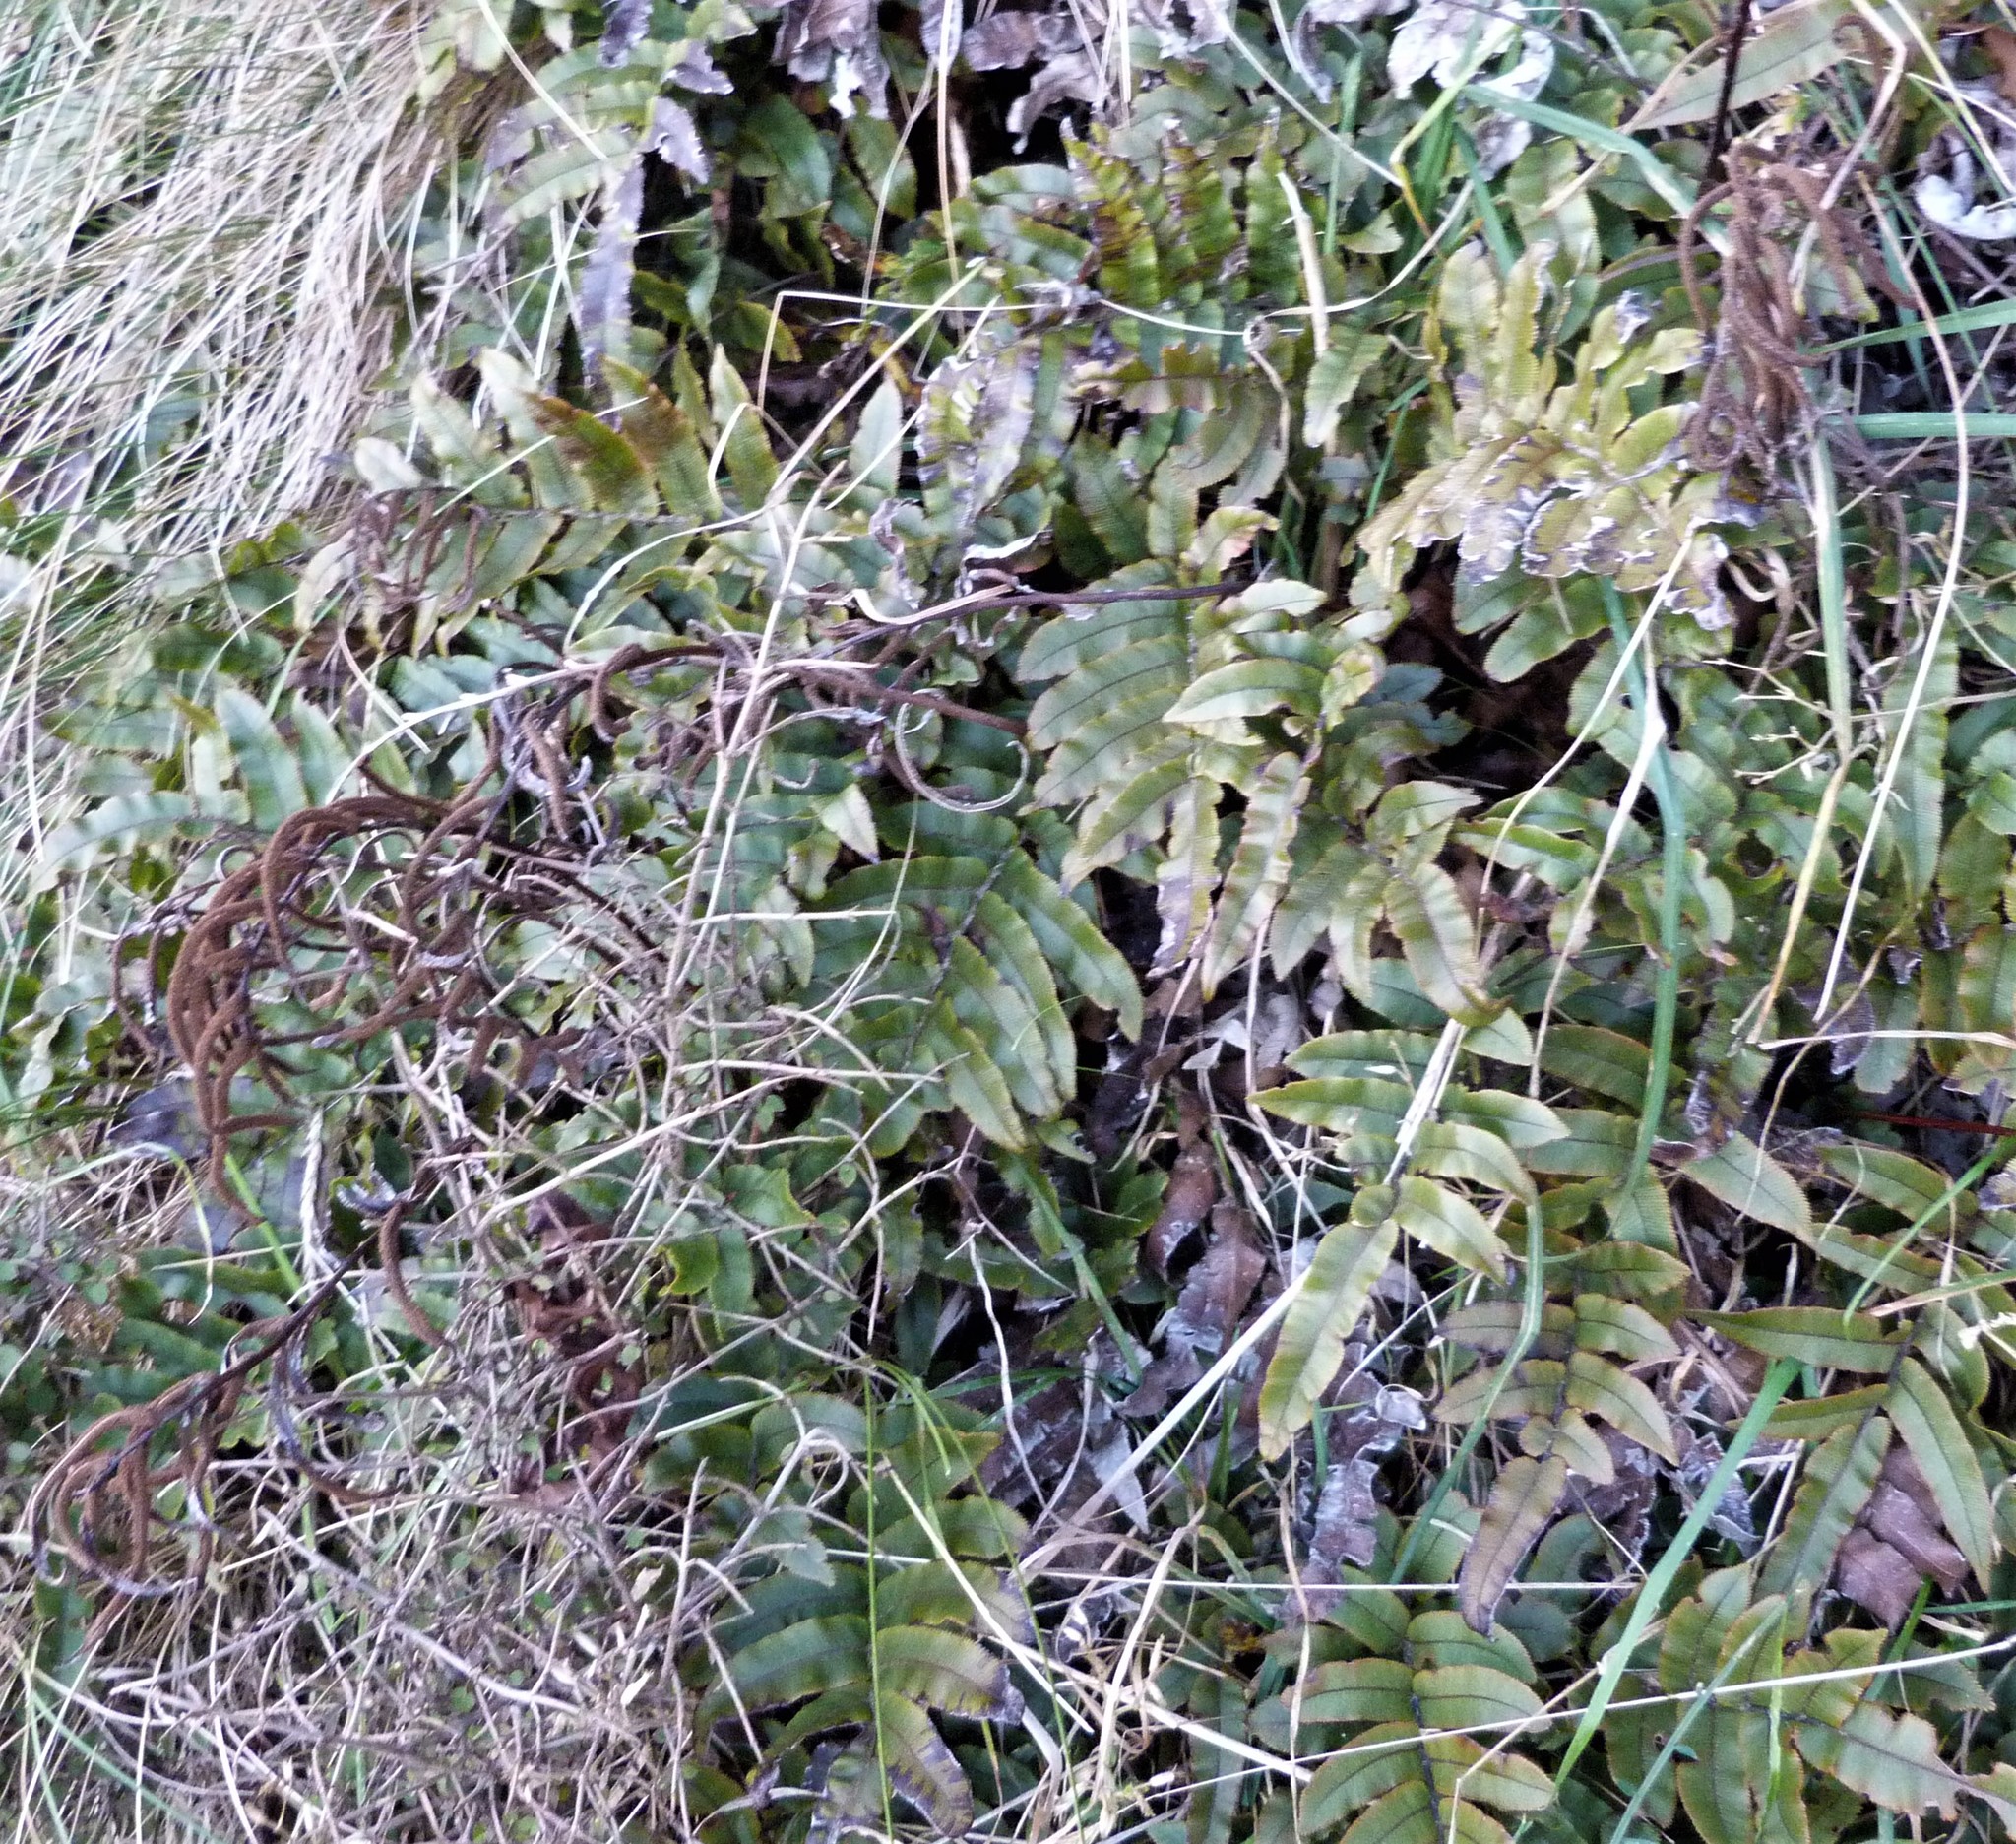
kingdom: Plantae
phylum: Tracheophyta
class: Polypodiopsida
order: Polypodiales
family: Blechnaceae
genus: Parablechnum
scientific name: Parablechnum procerum
